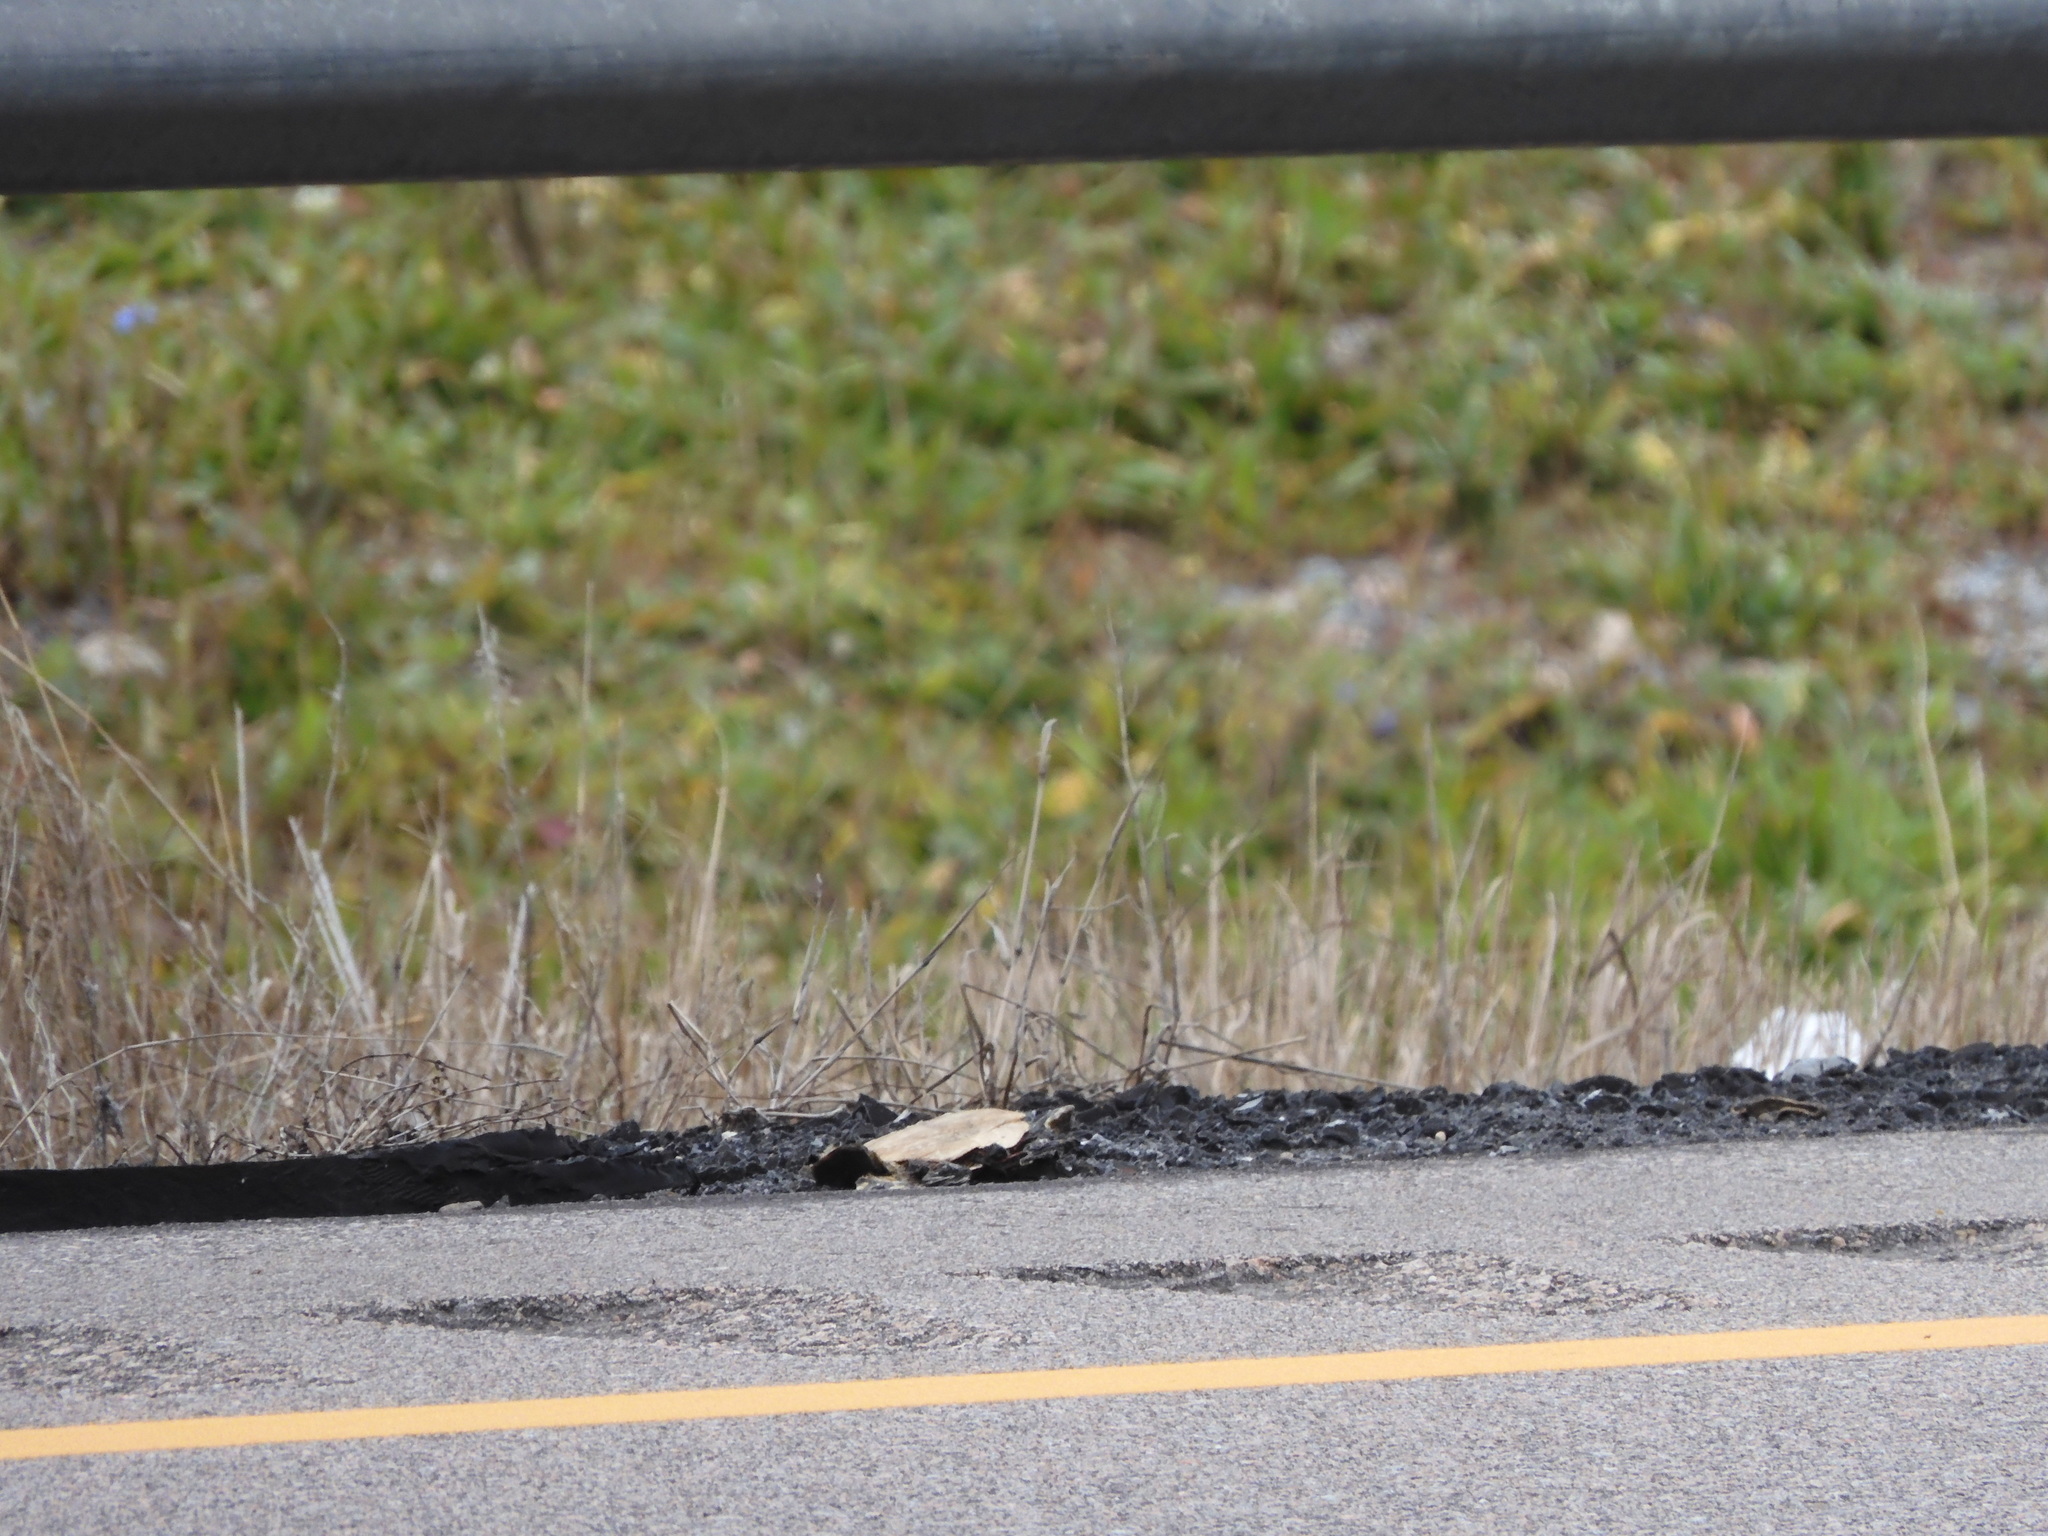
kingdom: Animalia
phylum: Chordata
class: Testudines
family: Emydidae
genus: Chrysemys
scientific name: Chrysemys picta
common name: Painted turtle
